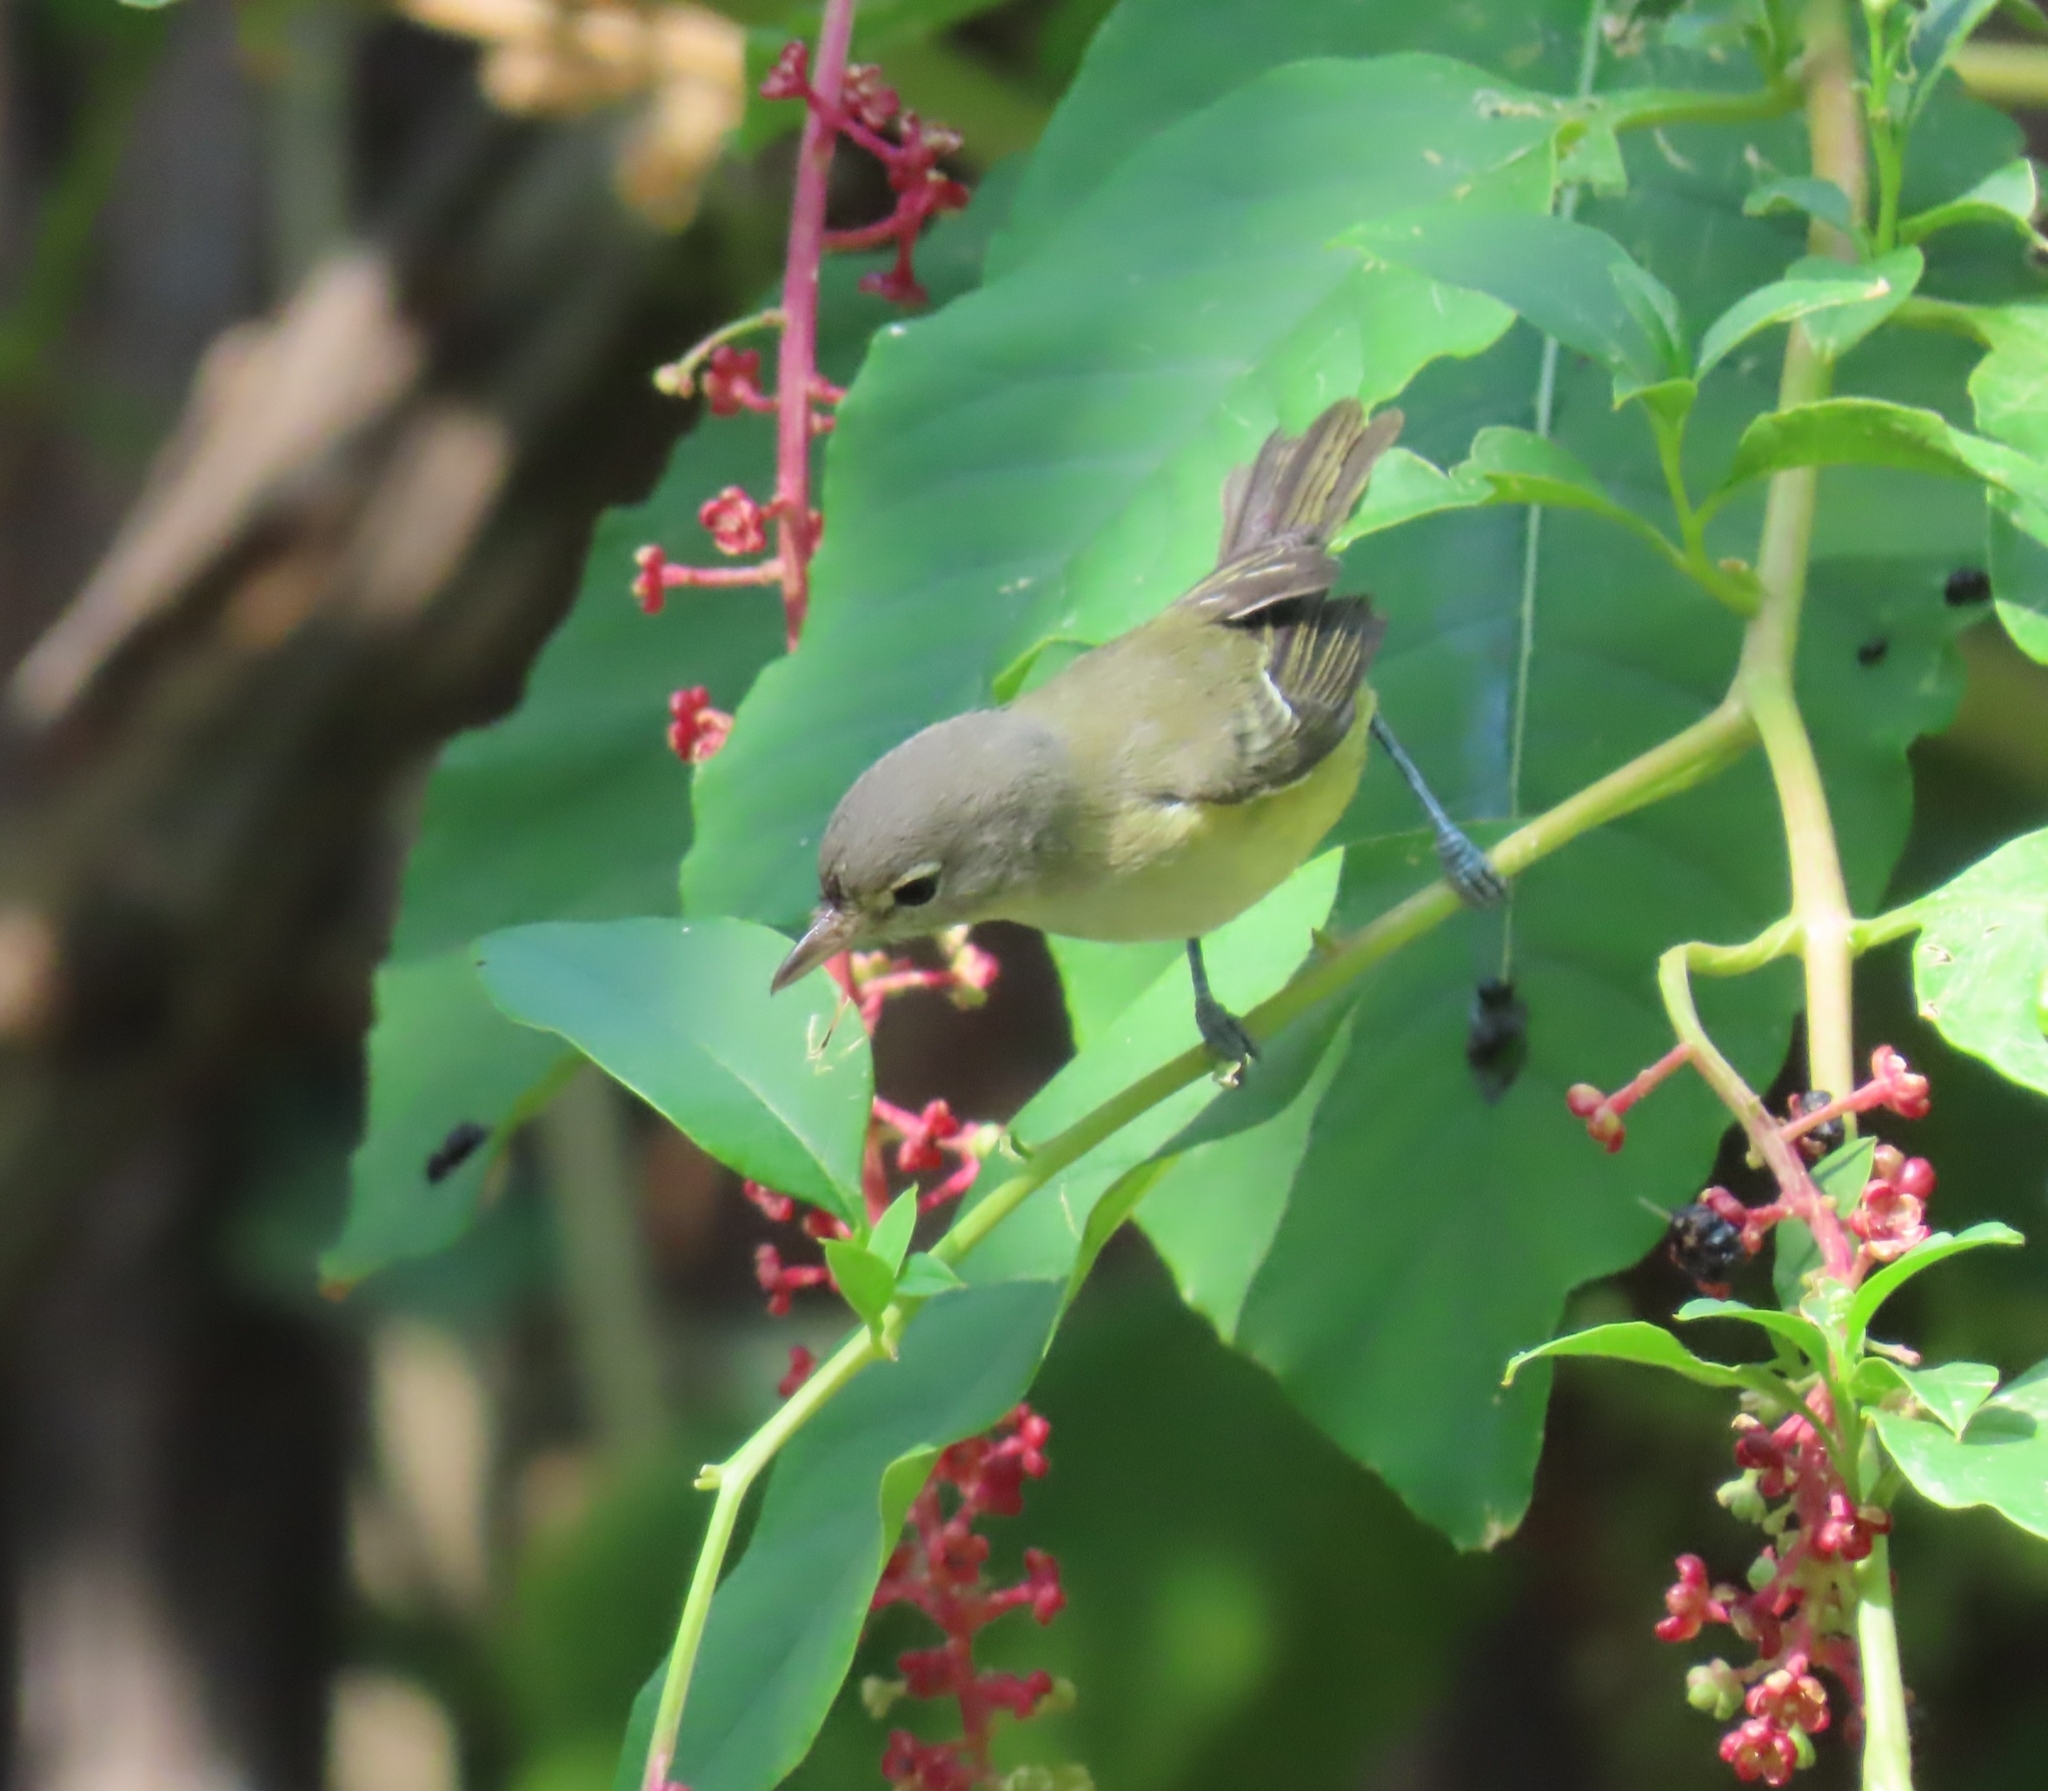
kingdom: Animalia
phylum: Chordata
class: Aves
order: Passeriformes
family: Vireonidae
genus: Vireo
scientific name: Vireo bellii
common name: Bell's vireo
